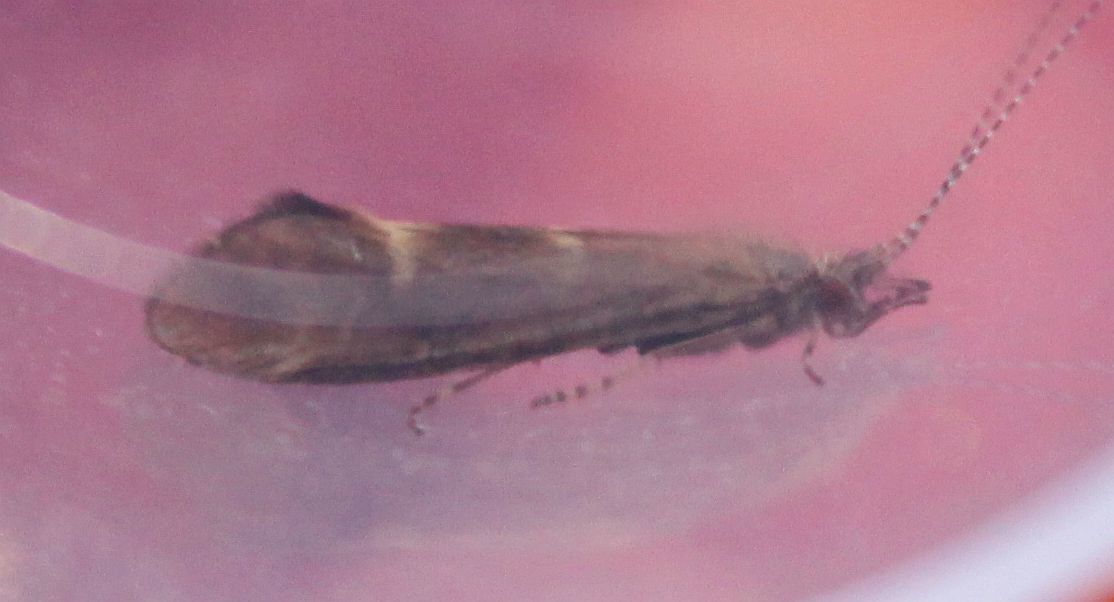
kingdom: Animalia
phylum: Arthropoda
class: Insecta
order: Trichoptera
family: Leptoceridae
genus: Athripsodes
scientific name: Athripsodes cinereus
